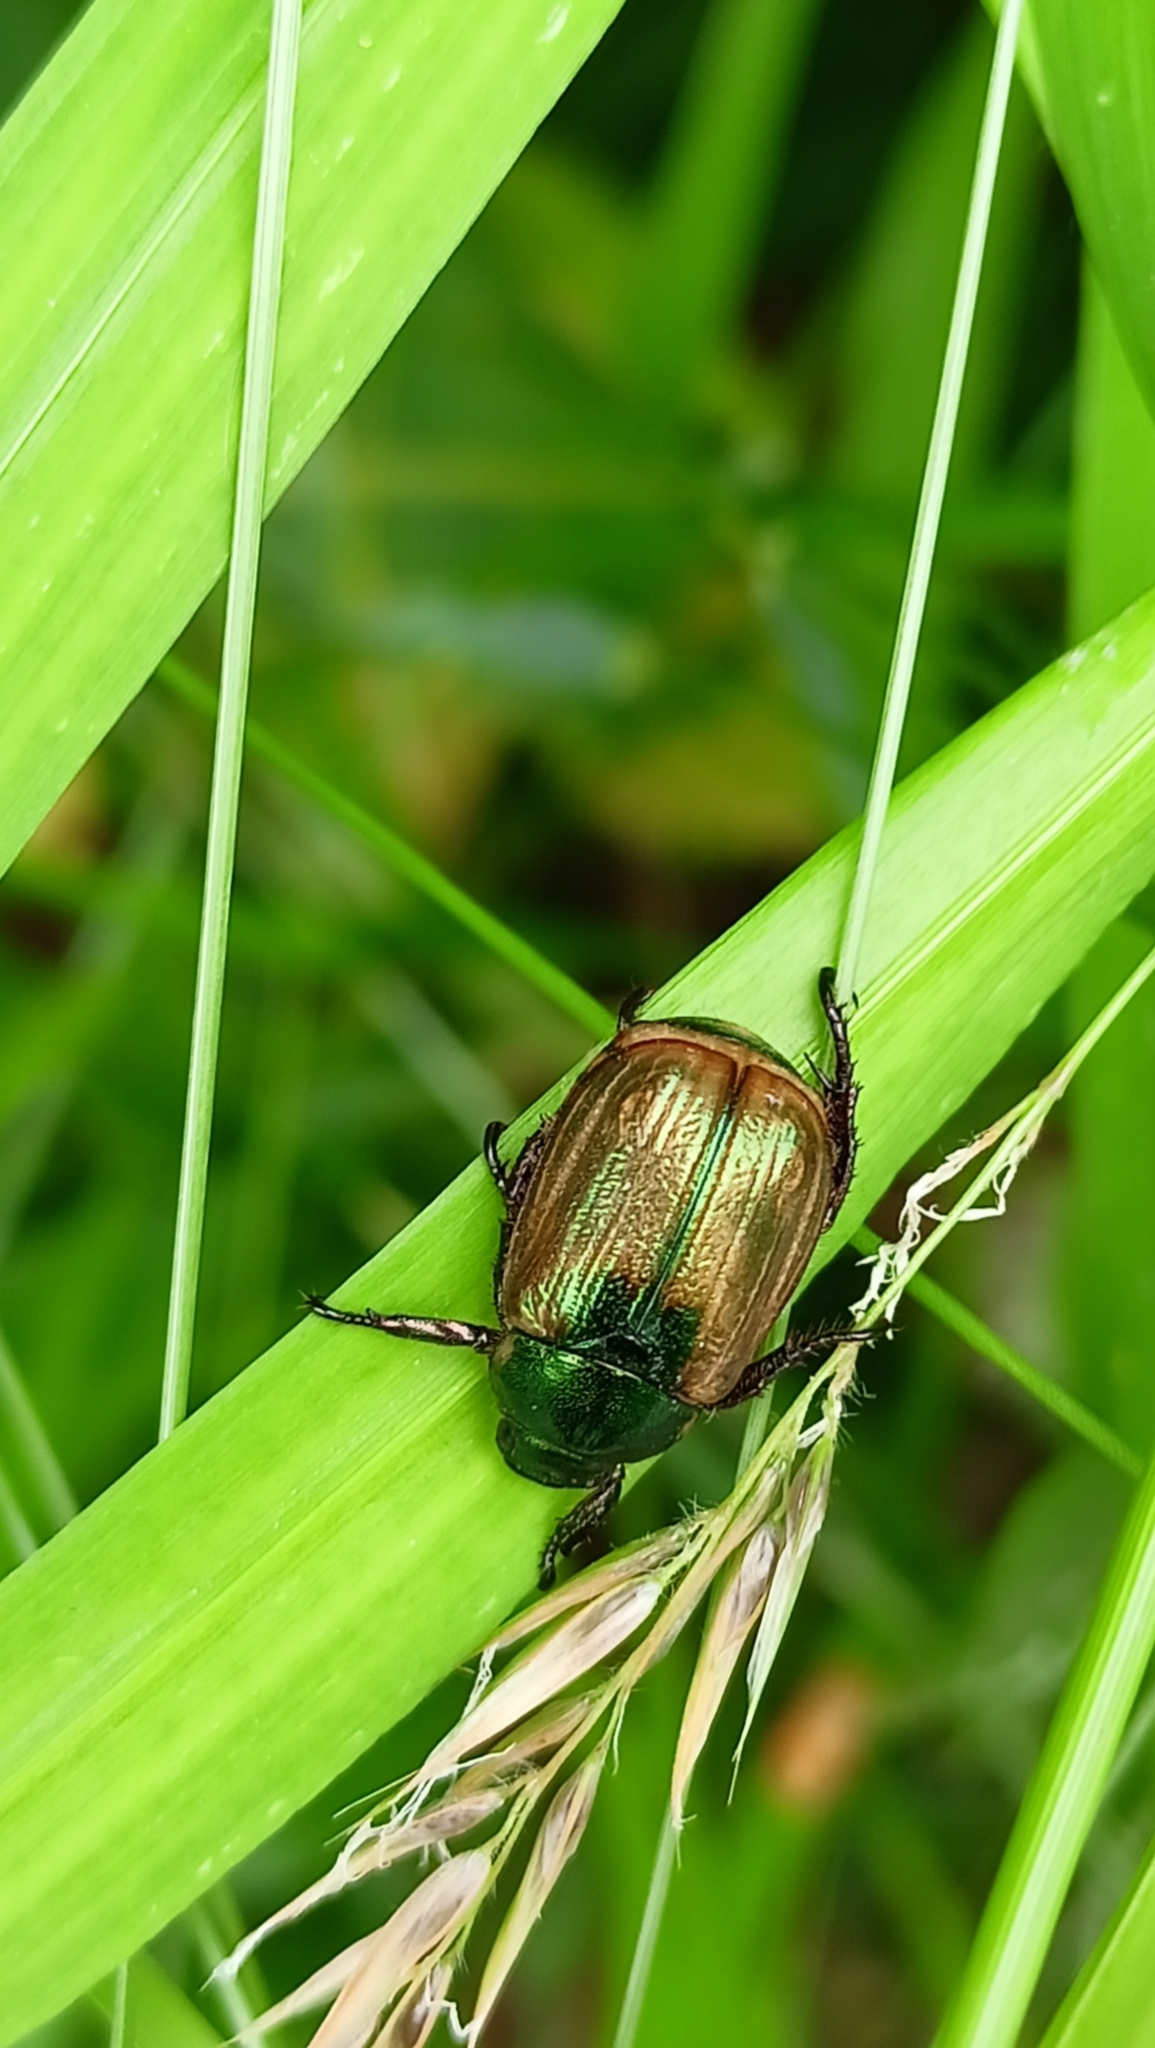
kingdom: Animalia
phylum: Arthropoda
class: Insecta
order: Coleoptera
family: Scarabaeidae
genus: Mimela
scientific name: Mimela junii
